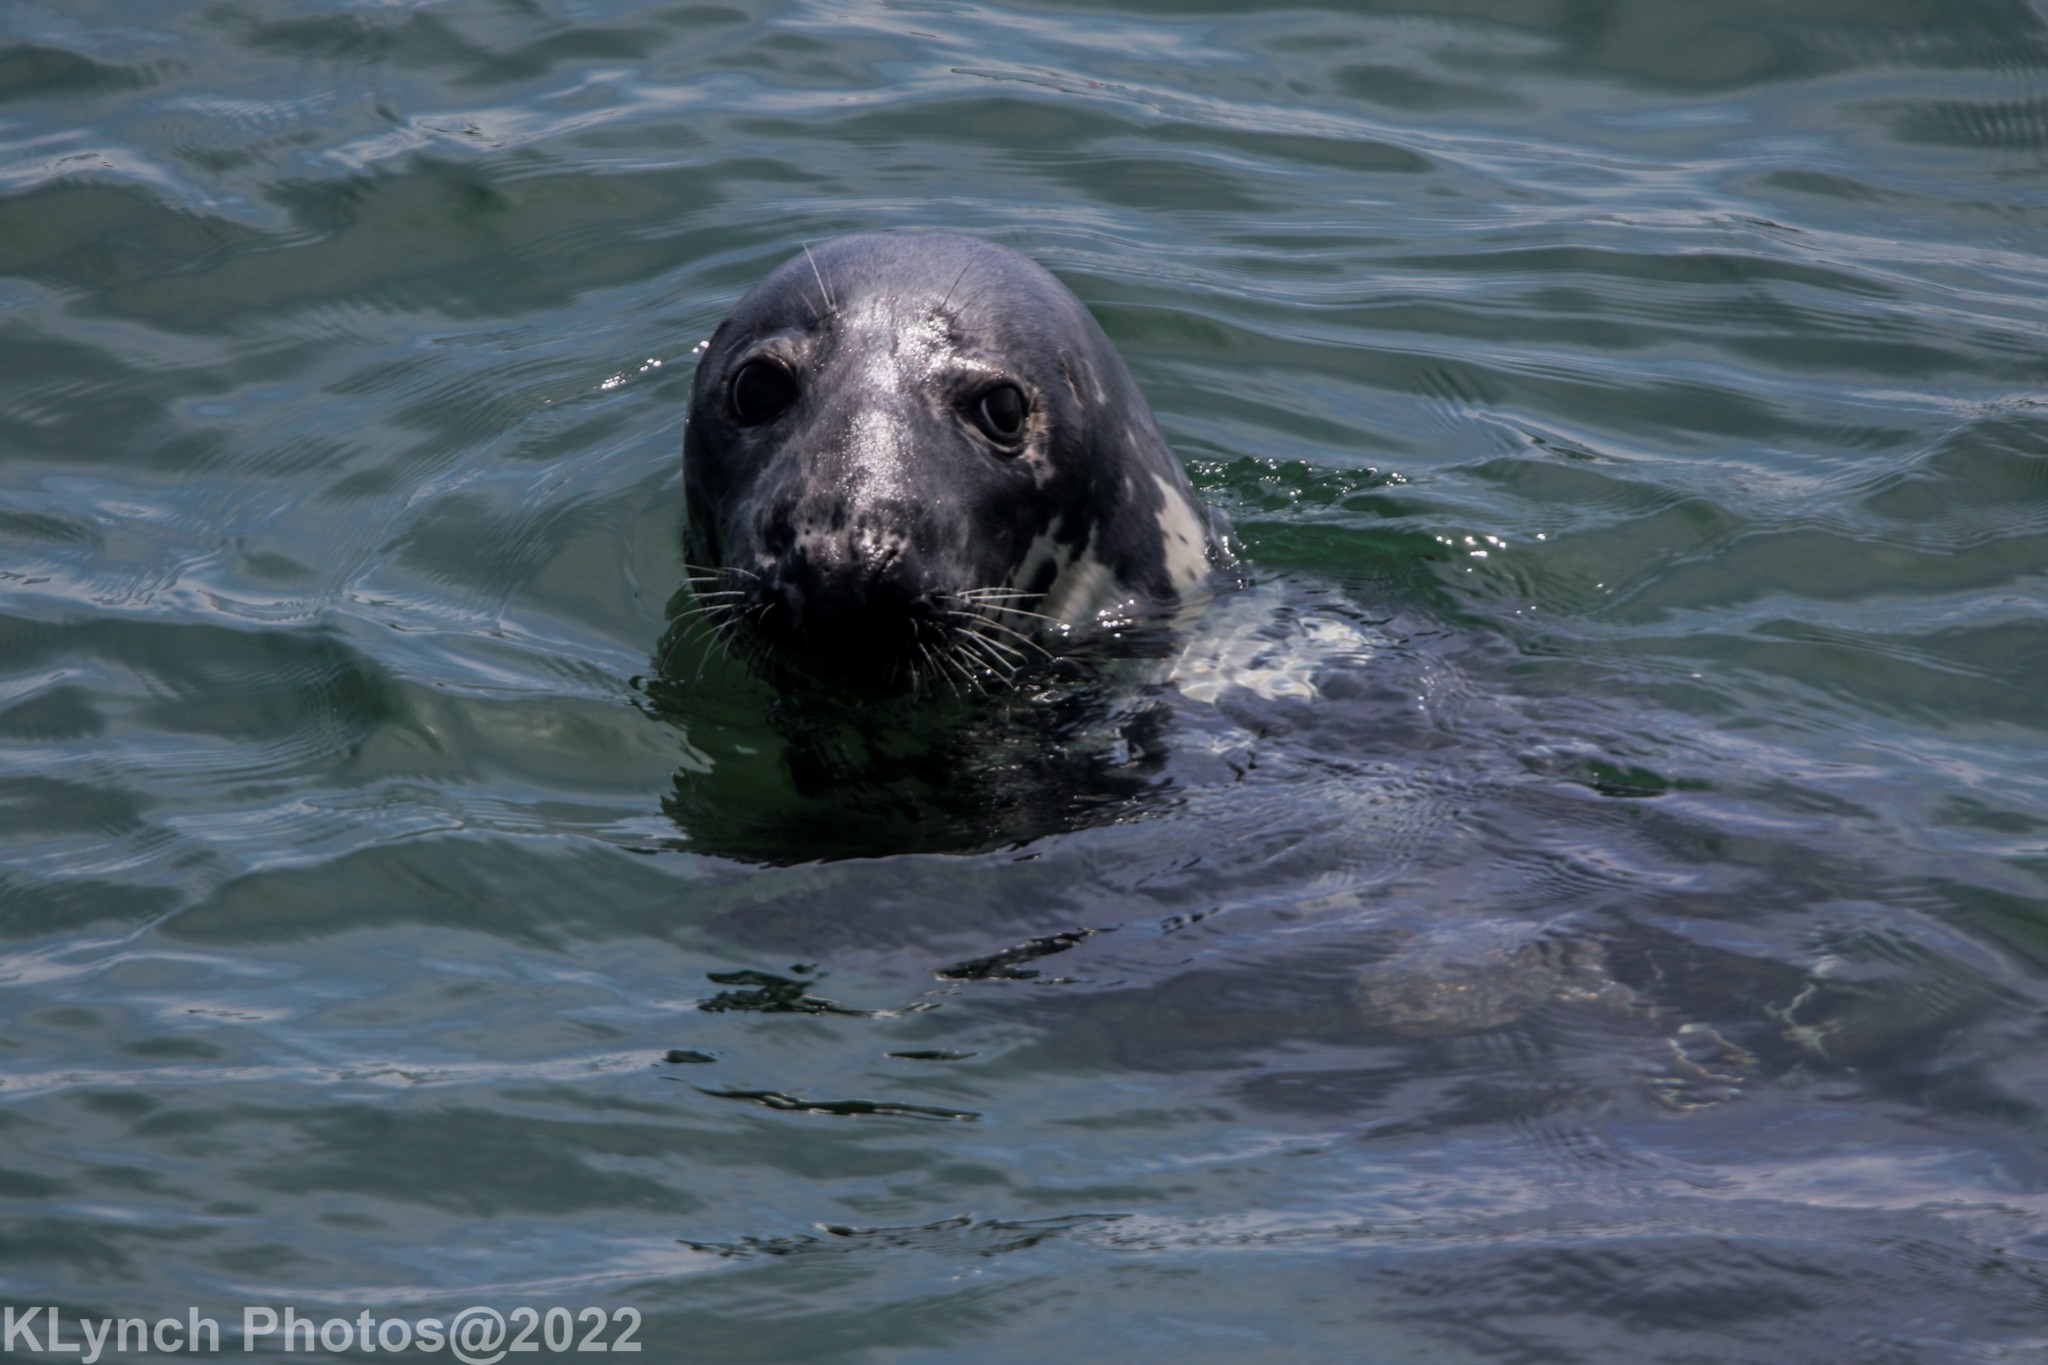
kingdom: Animalia
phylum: Chordata
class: Mammalia
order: Carnivora
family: Phocidae
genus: Halichoerus
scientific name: Halichoerus grypus
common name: Grey seal
